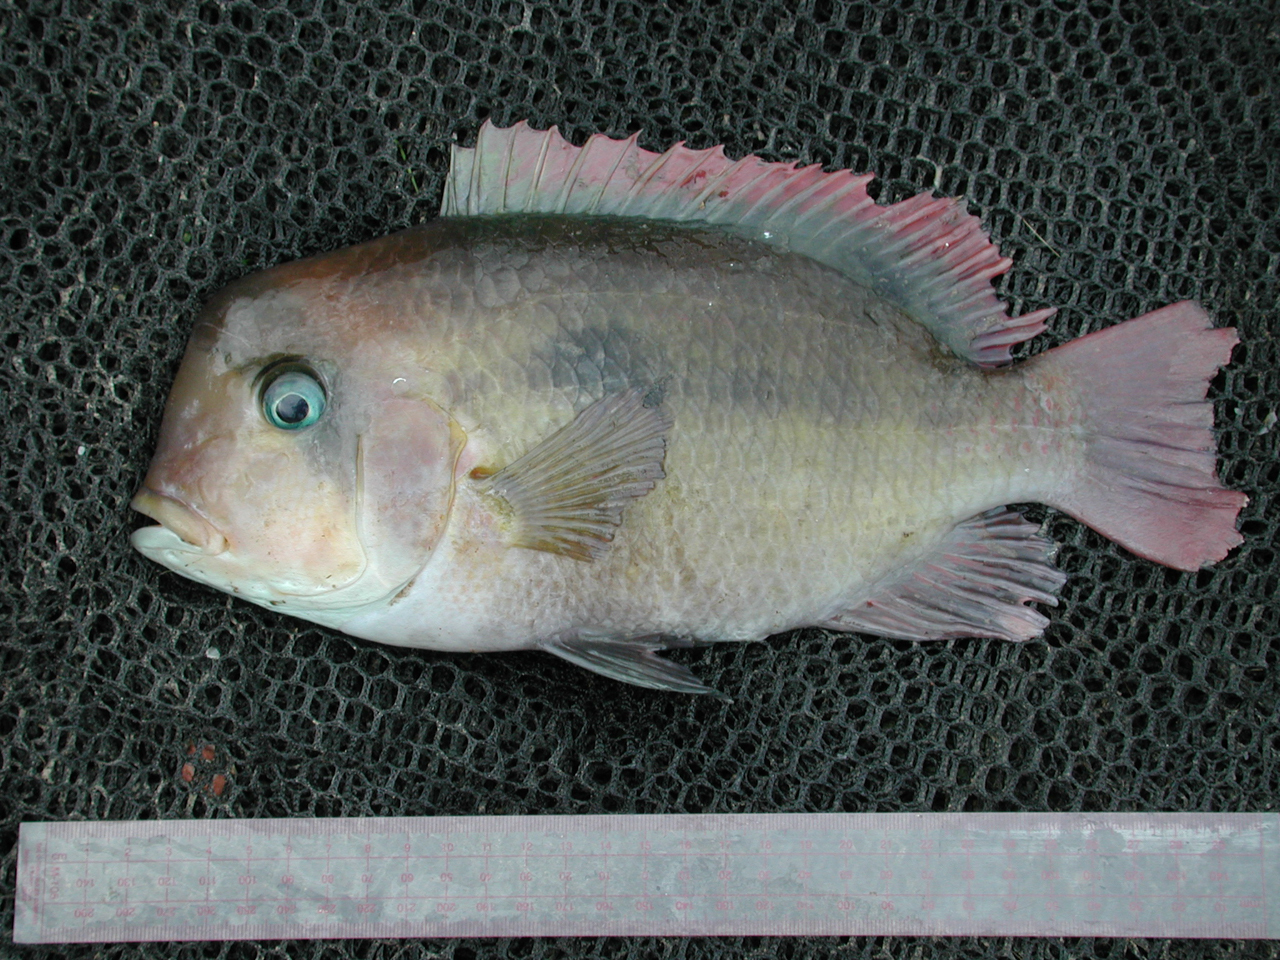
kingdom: Animalia
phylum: Chordata
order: Perciformes
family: Cichlidae
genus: Heterochromis
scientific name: Heterochromis multidens
